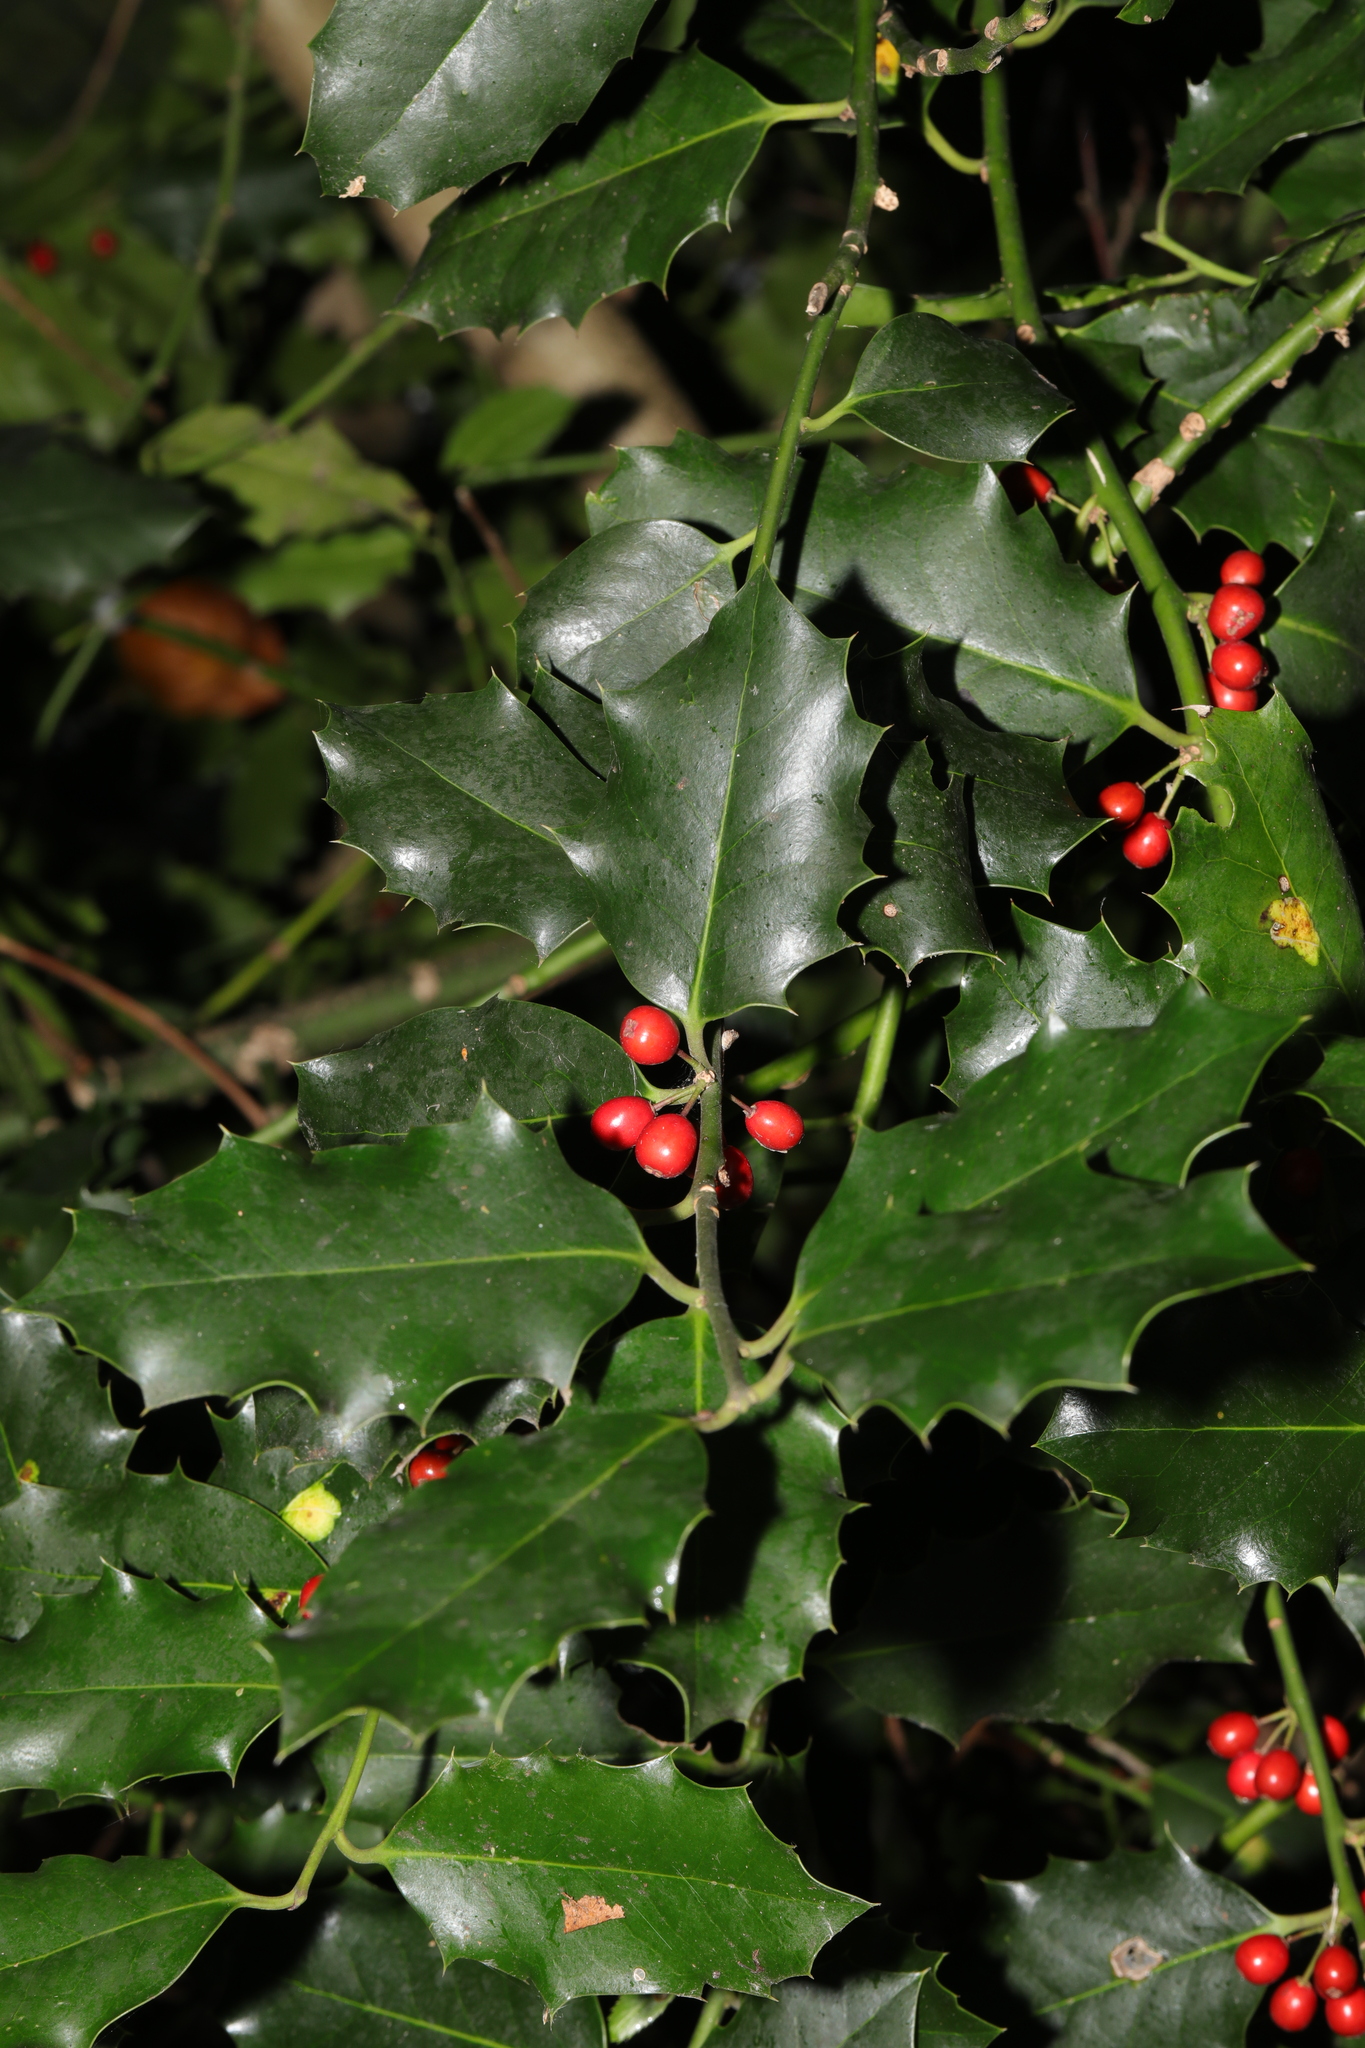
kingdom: Plantae
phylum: Tracheophyta
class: Magnoliopsida
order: Aquifoliales
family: Aquifoliaceae
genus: Ilex
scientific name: Ilex aquifolium
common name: English holly
